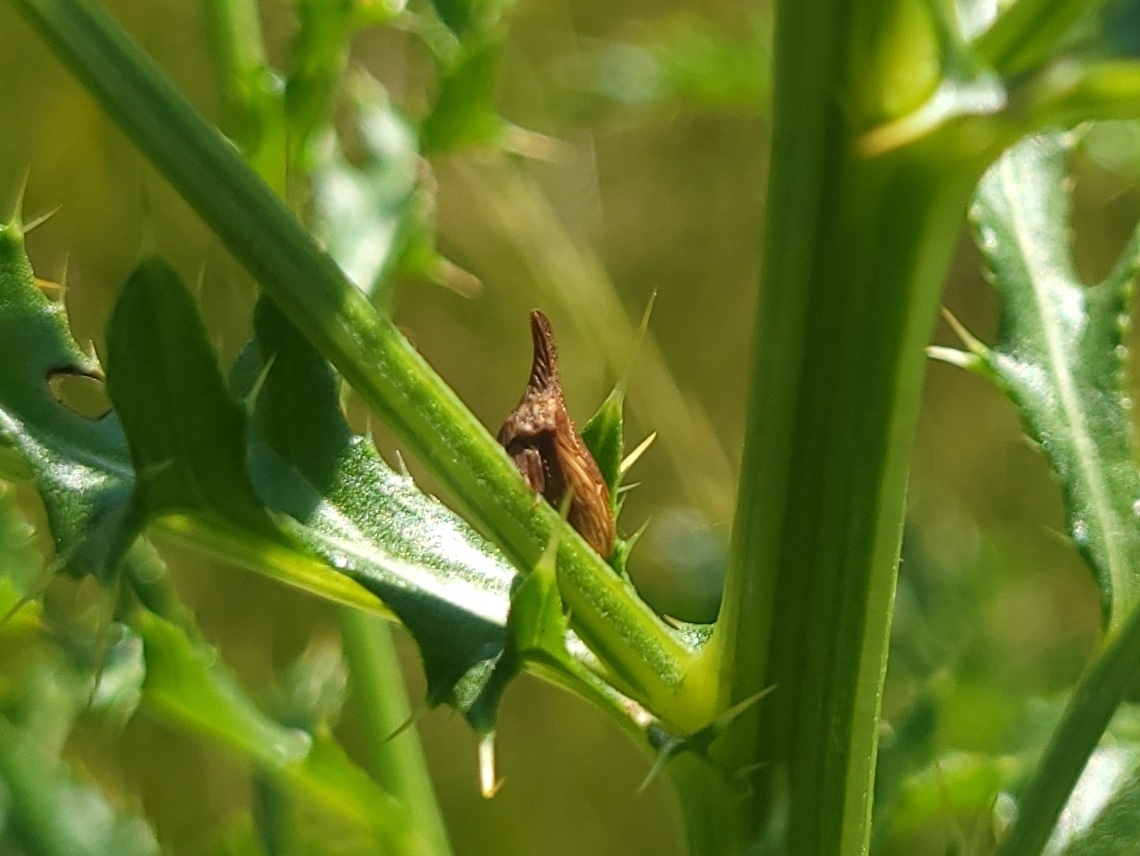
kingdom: Animalia
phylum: Arthropoda
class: Insecta
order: Hemiptera
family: Membracidae
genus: Enchenopa
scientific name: Enchenopa latipes
